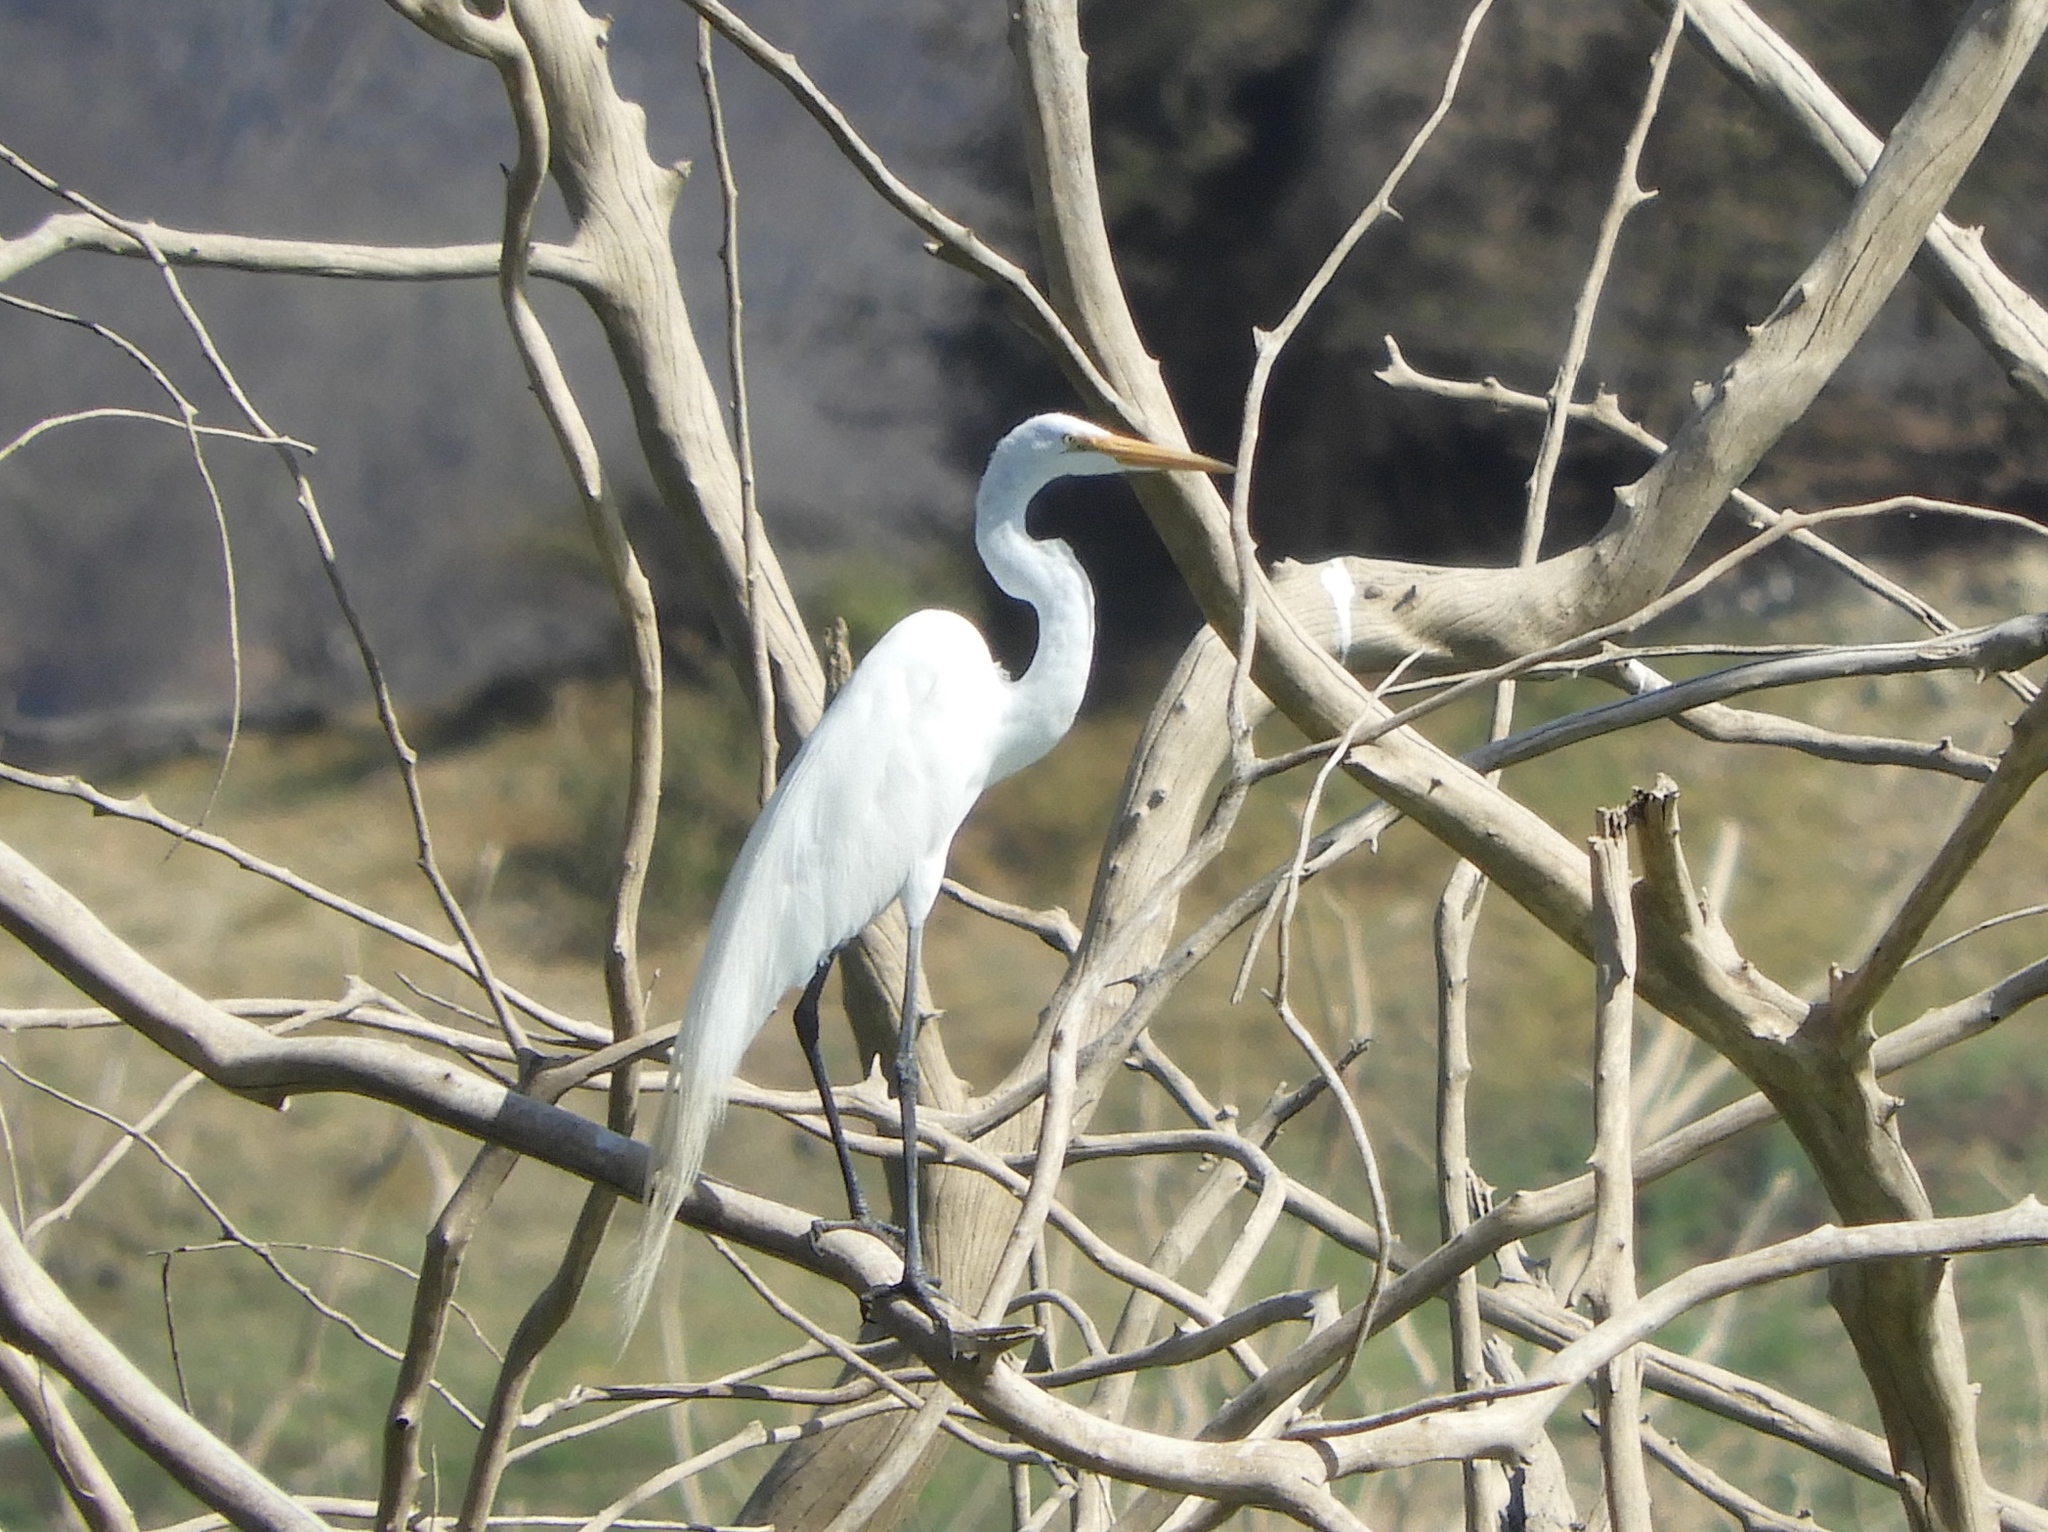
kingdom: Animalia
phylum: Chordata
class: Aves
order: Pelecaniformes
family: Ardeidae
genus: Ardea
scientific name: Ardea alba
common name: Great egret
